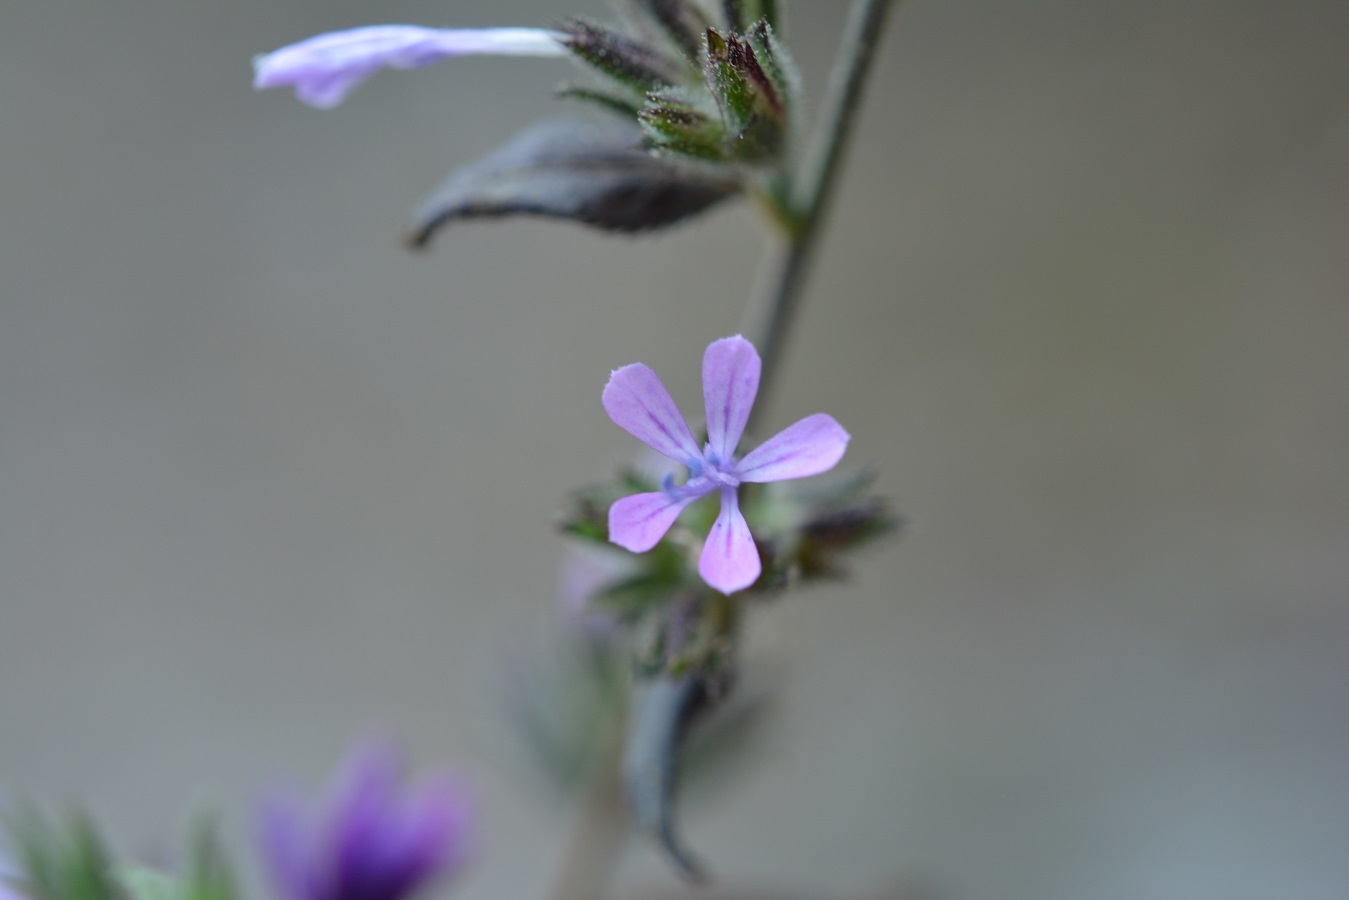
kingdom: Plantae
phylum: Tracheophyta
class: Magnoliopsida
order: Ericales
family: Polemoniaceae
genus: Loeselia
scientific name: Loeselia glandulosa
